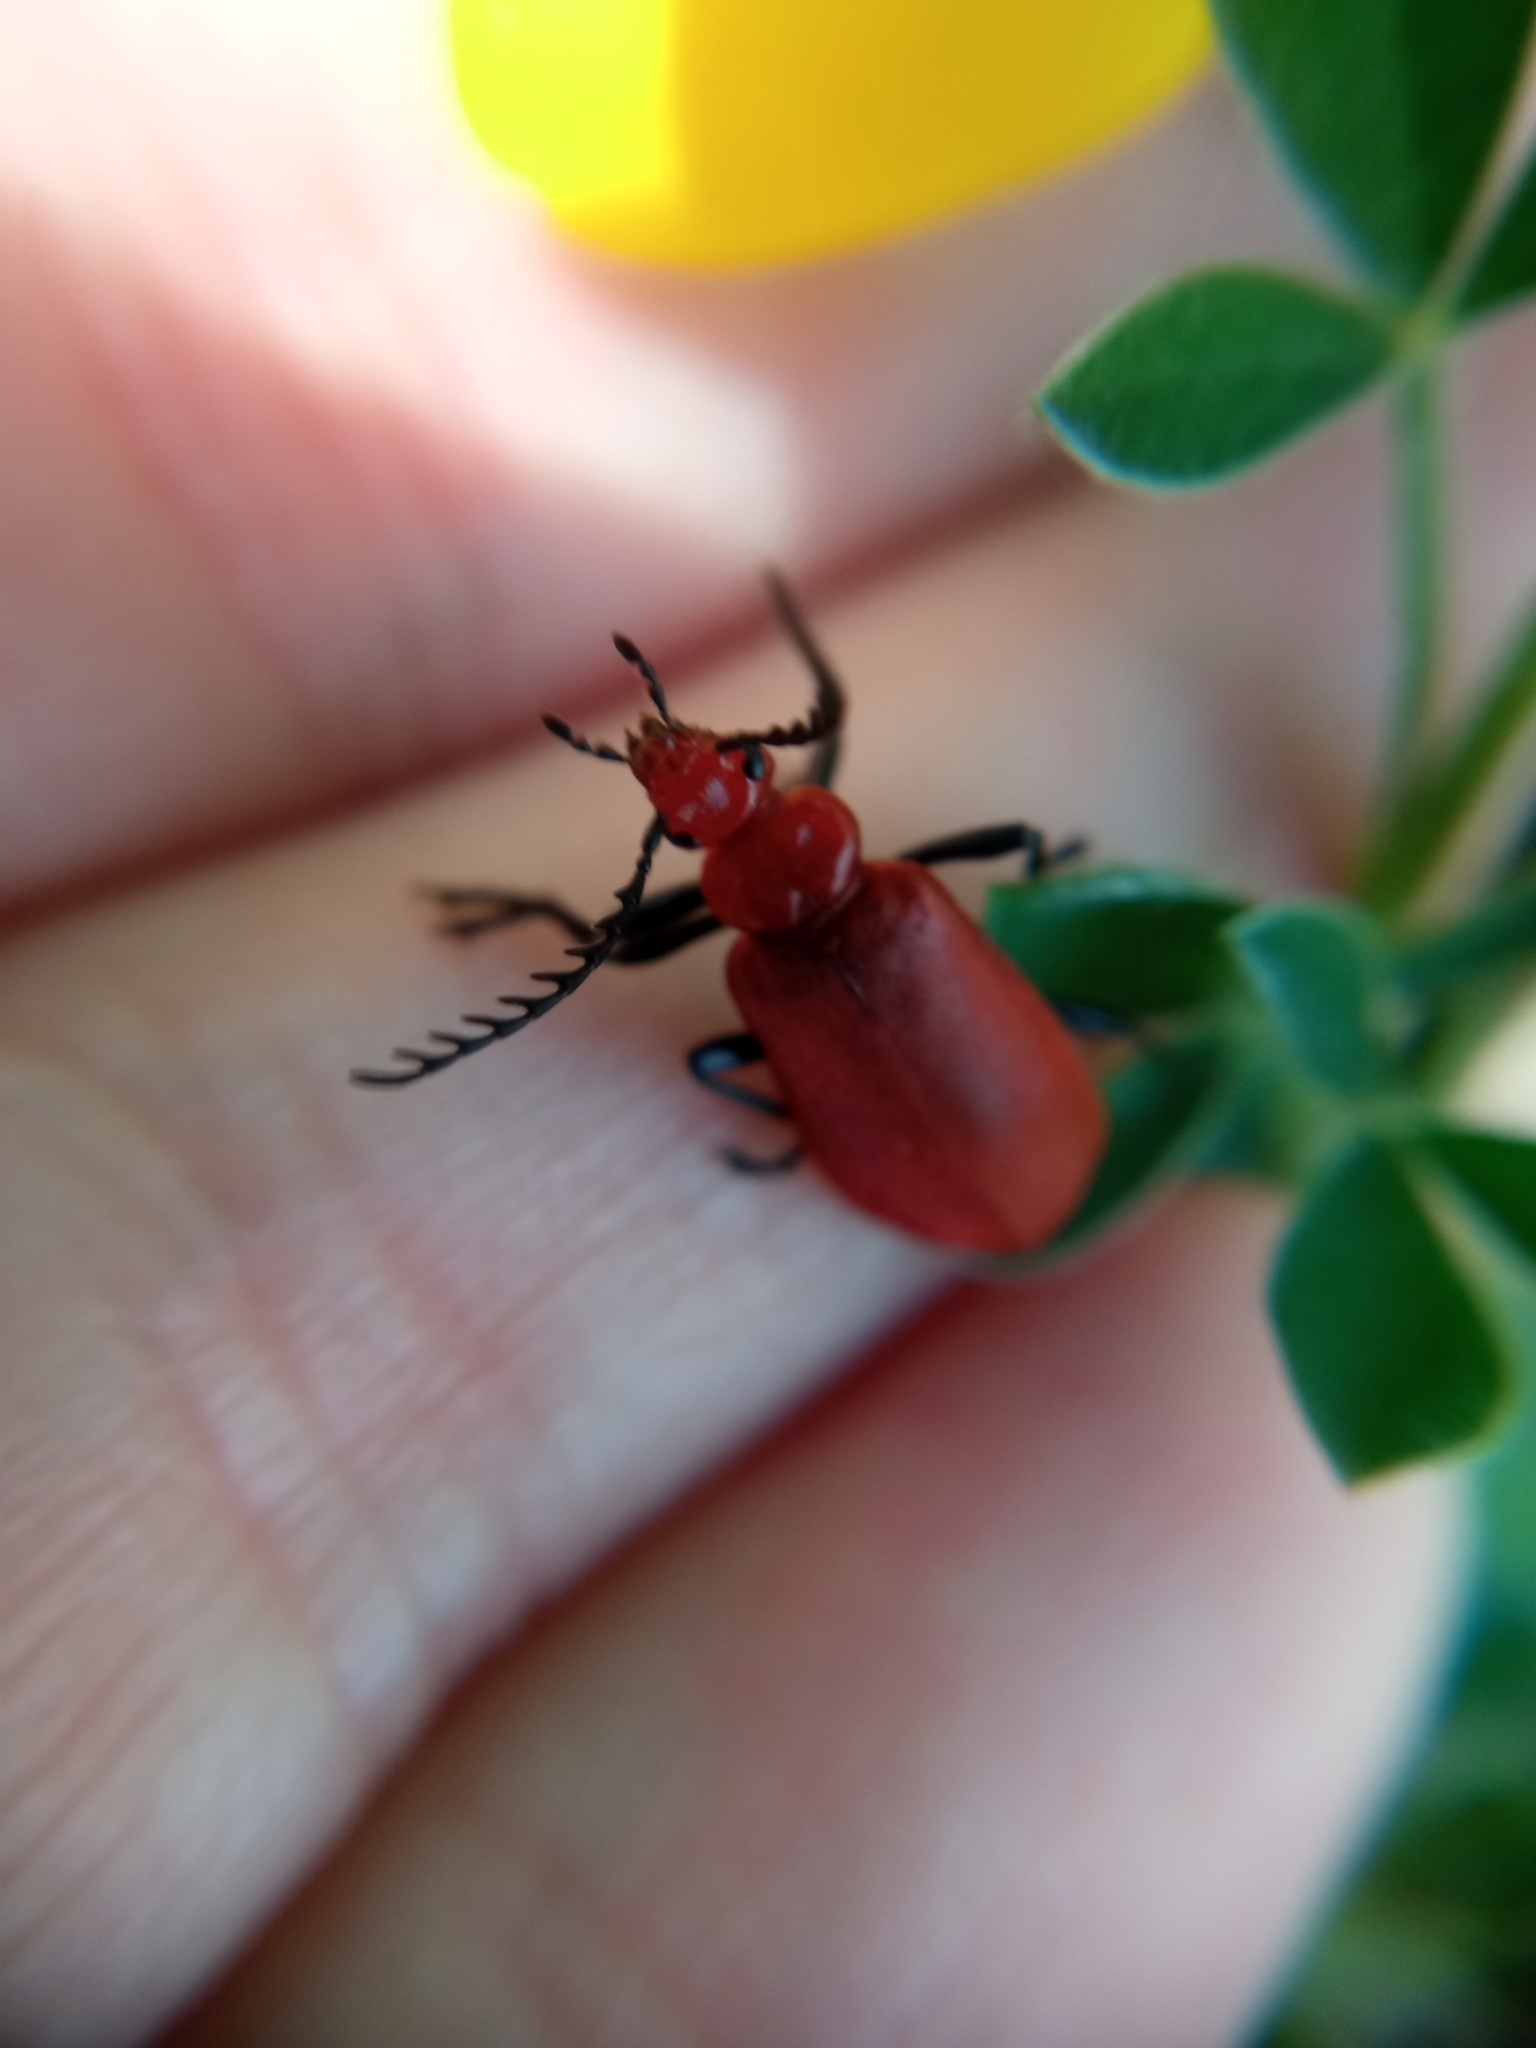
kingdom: Animalia
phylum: Arthropoda
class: Insecta
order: Coleoptera
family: Pyrochroidae
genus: Pyrochroa
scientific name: Pyrochroa serraticornis
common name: Red-headed cardinal beetle
